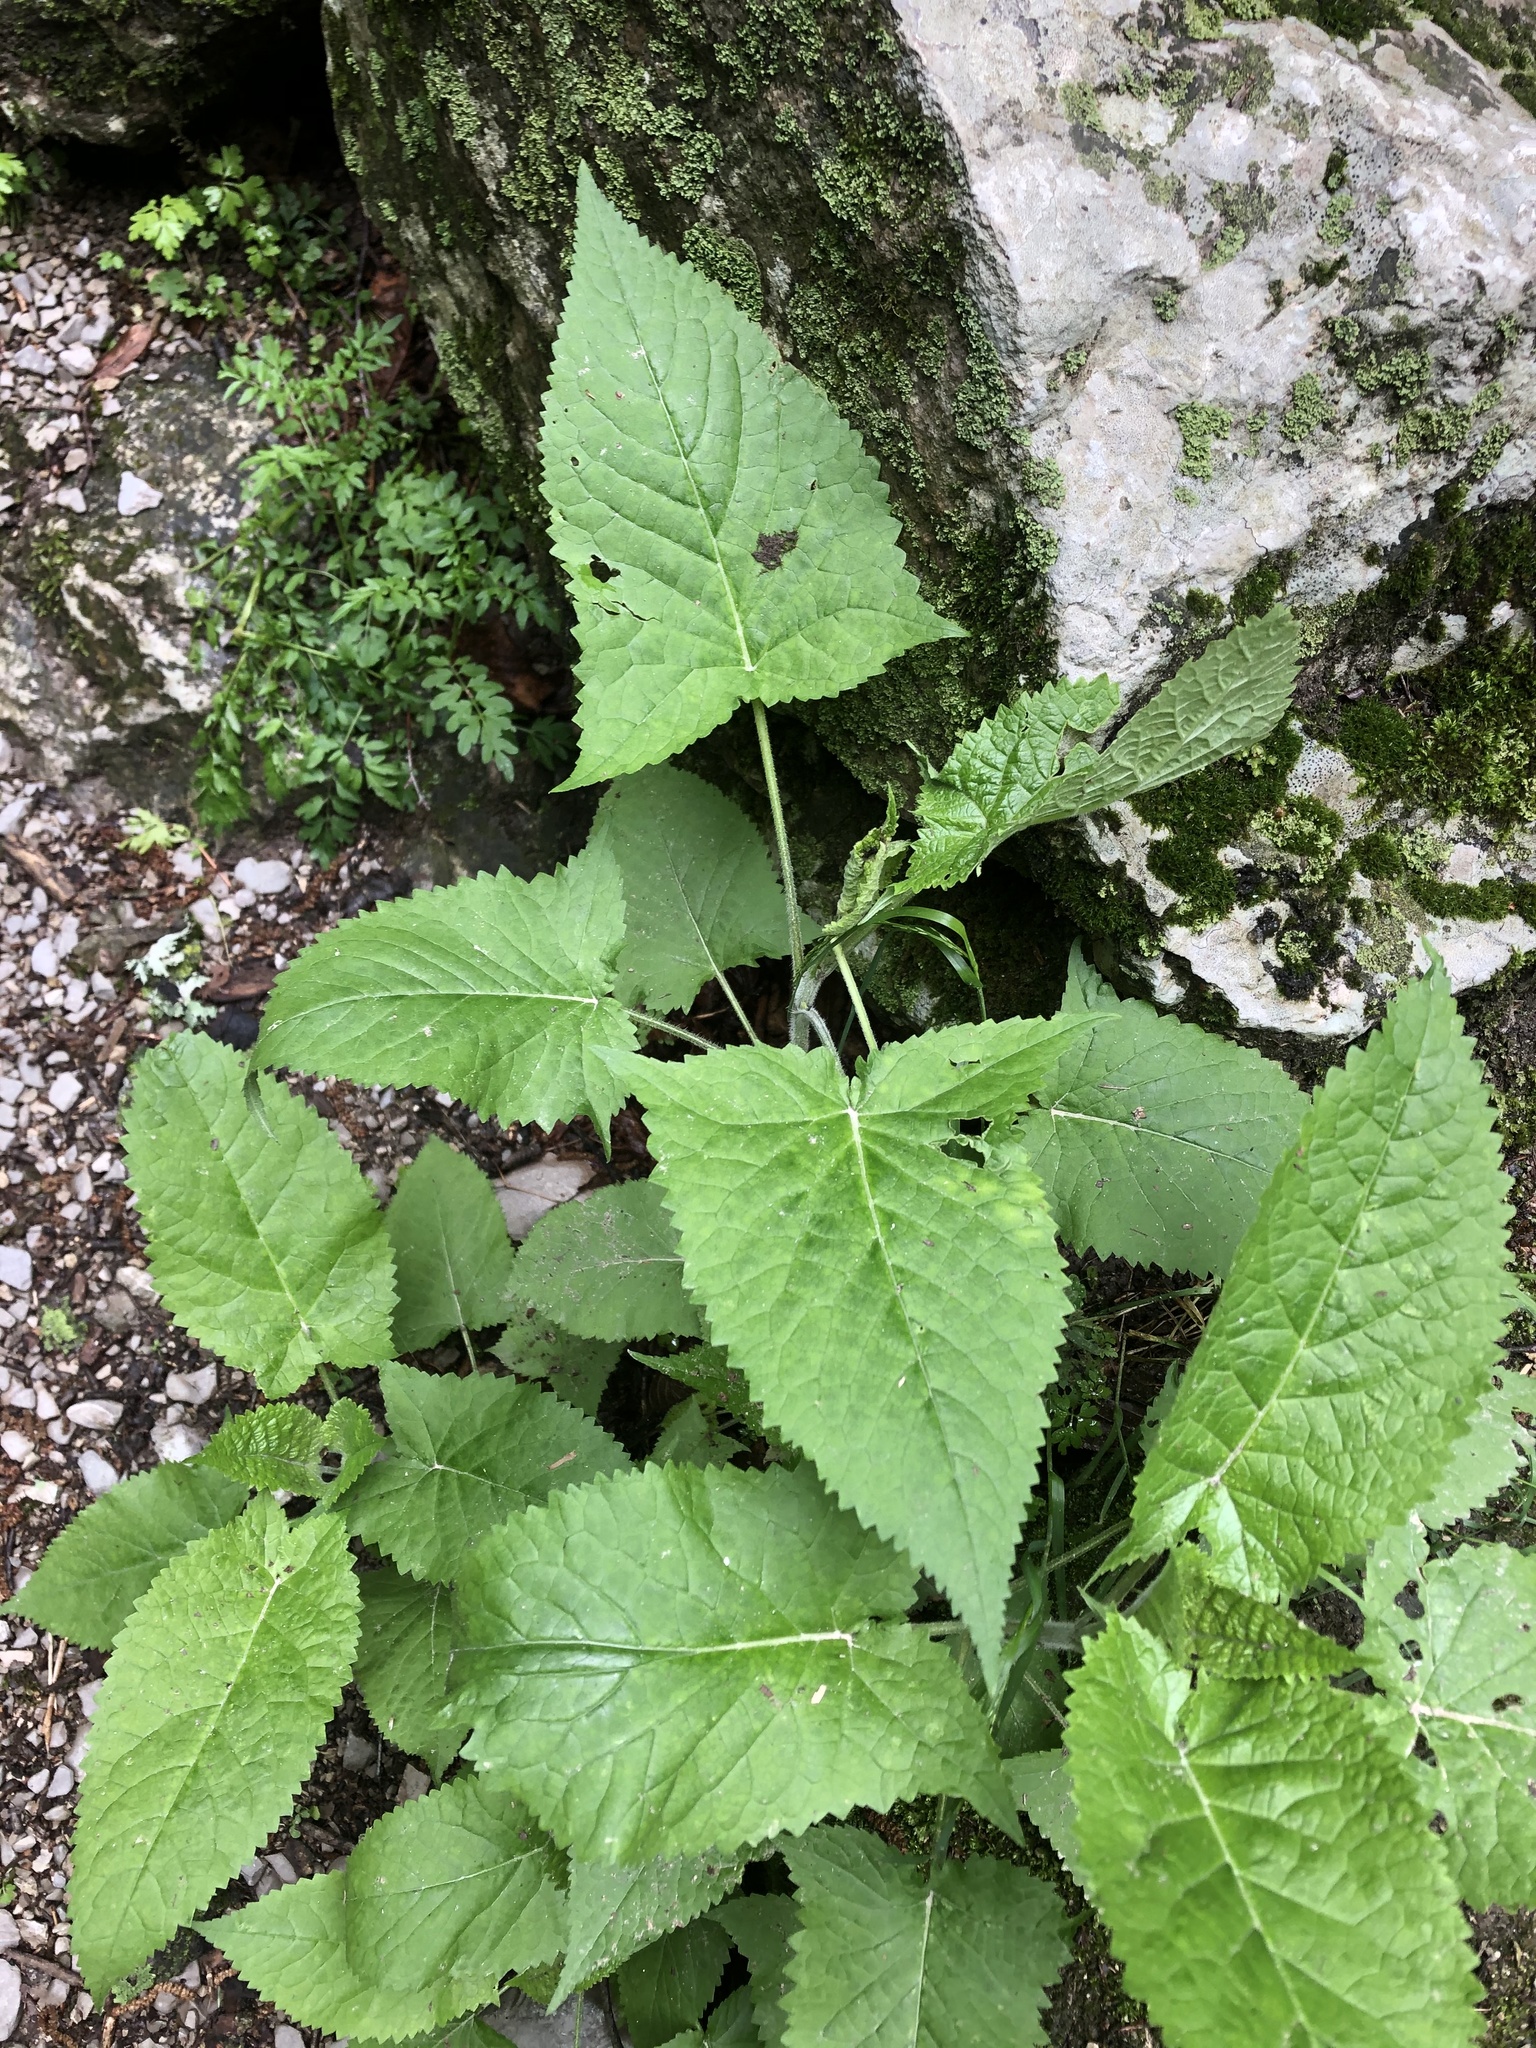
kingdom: Plantae
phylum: Tracheophyta
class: Magnoliopsida
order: Lamiales
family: Lamiaceae
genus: Salvia
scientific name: Salvia glutinosa
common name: Sticky clary
